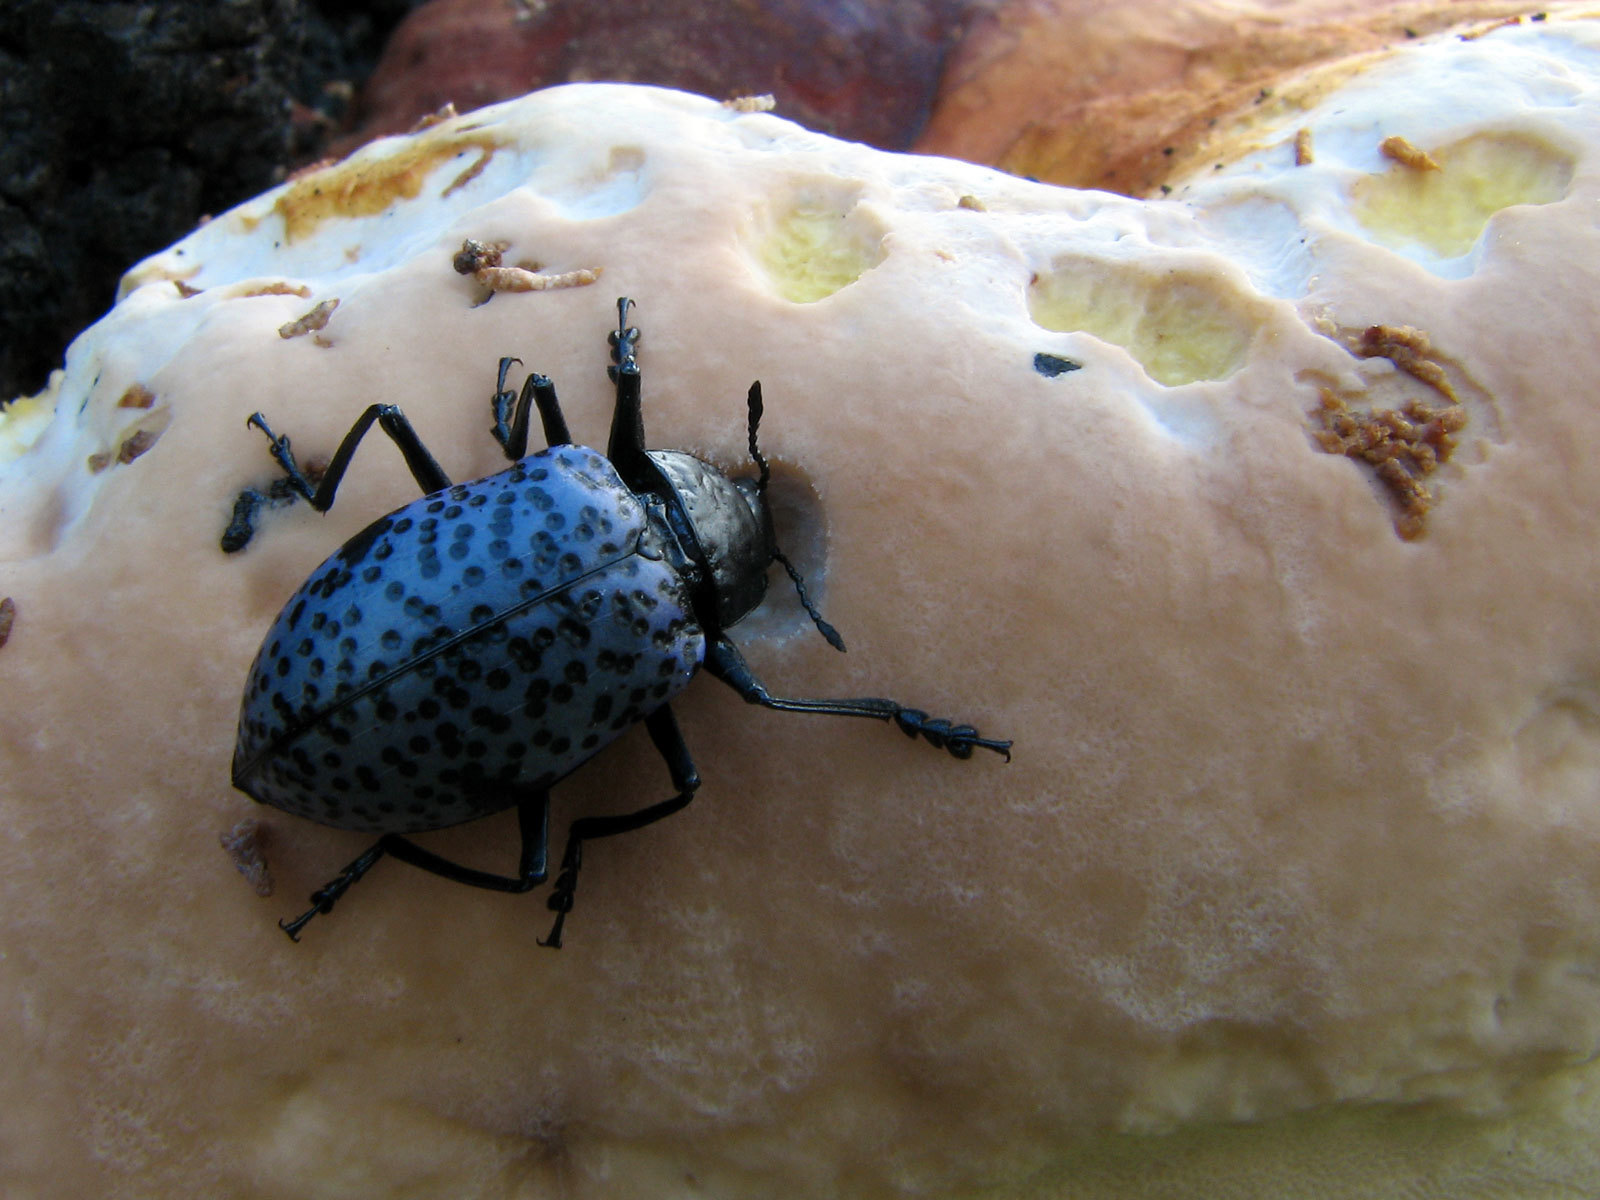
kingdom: Animalia
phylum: Arthropoda
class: Insecta
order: Coleoptera
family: Erotylidae
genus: Gibbifer
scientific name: Gibbifer californicus
